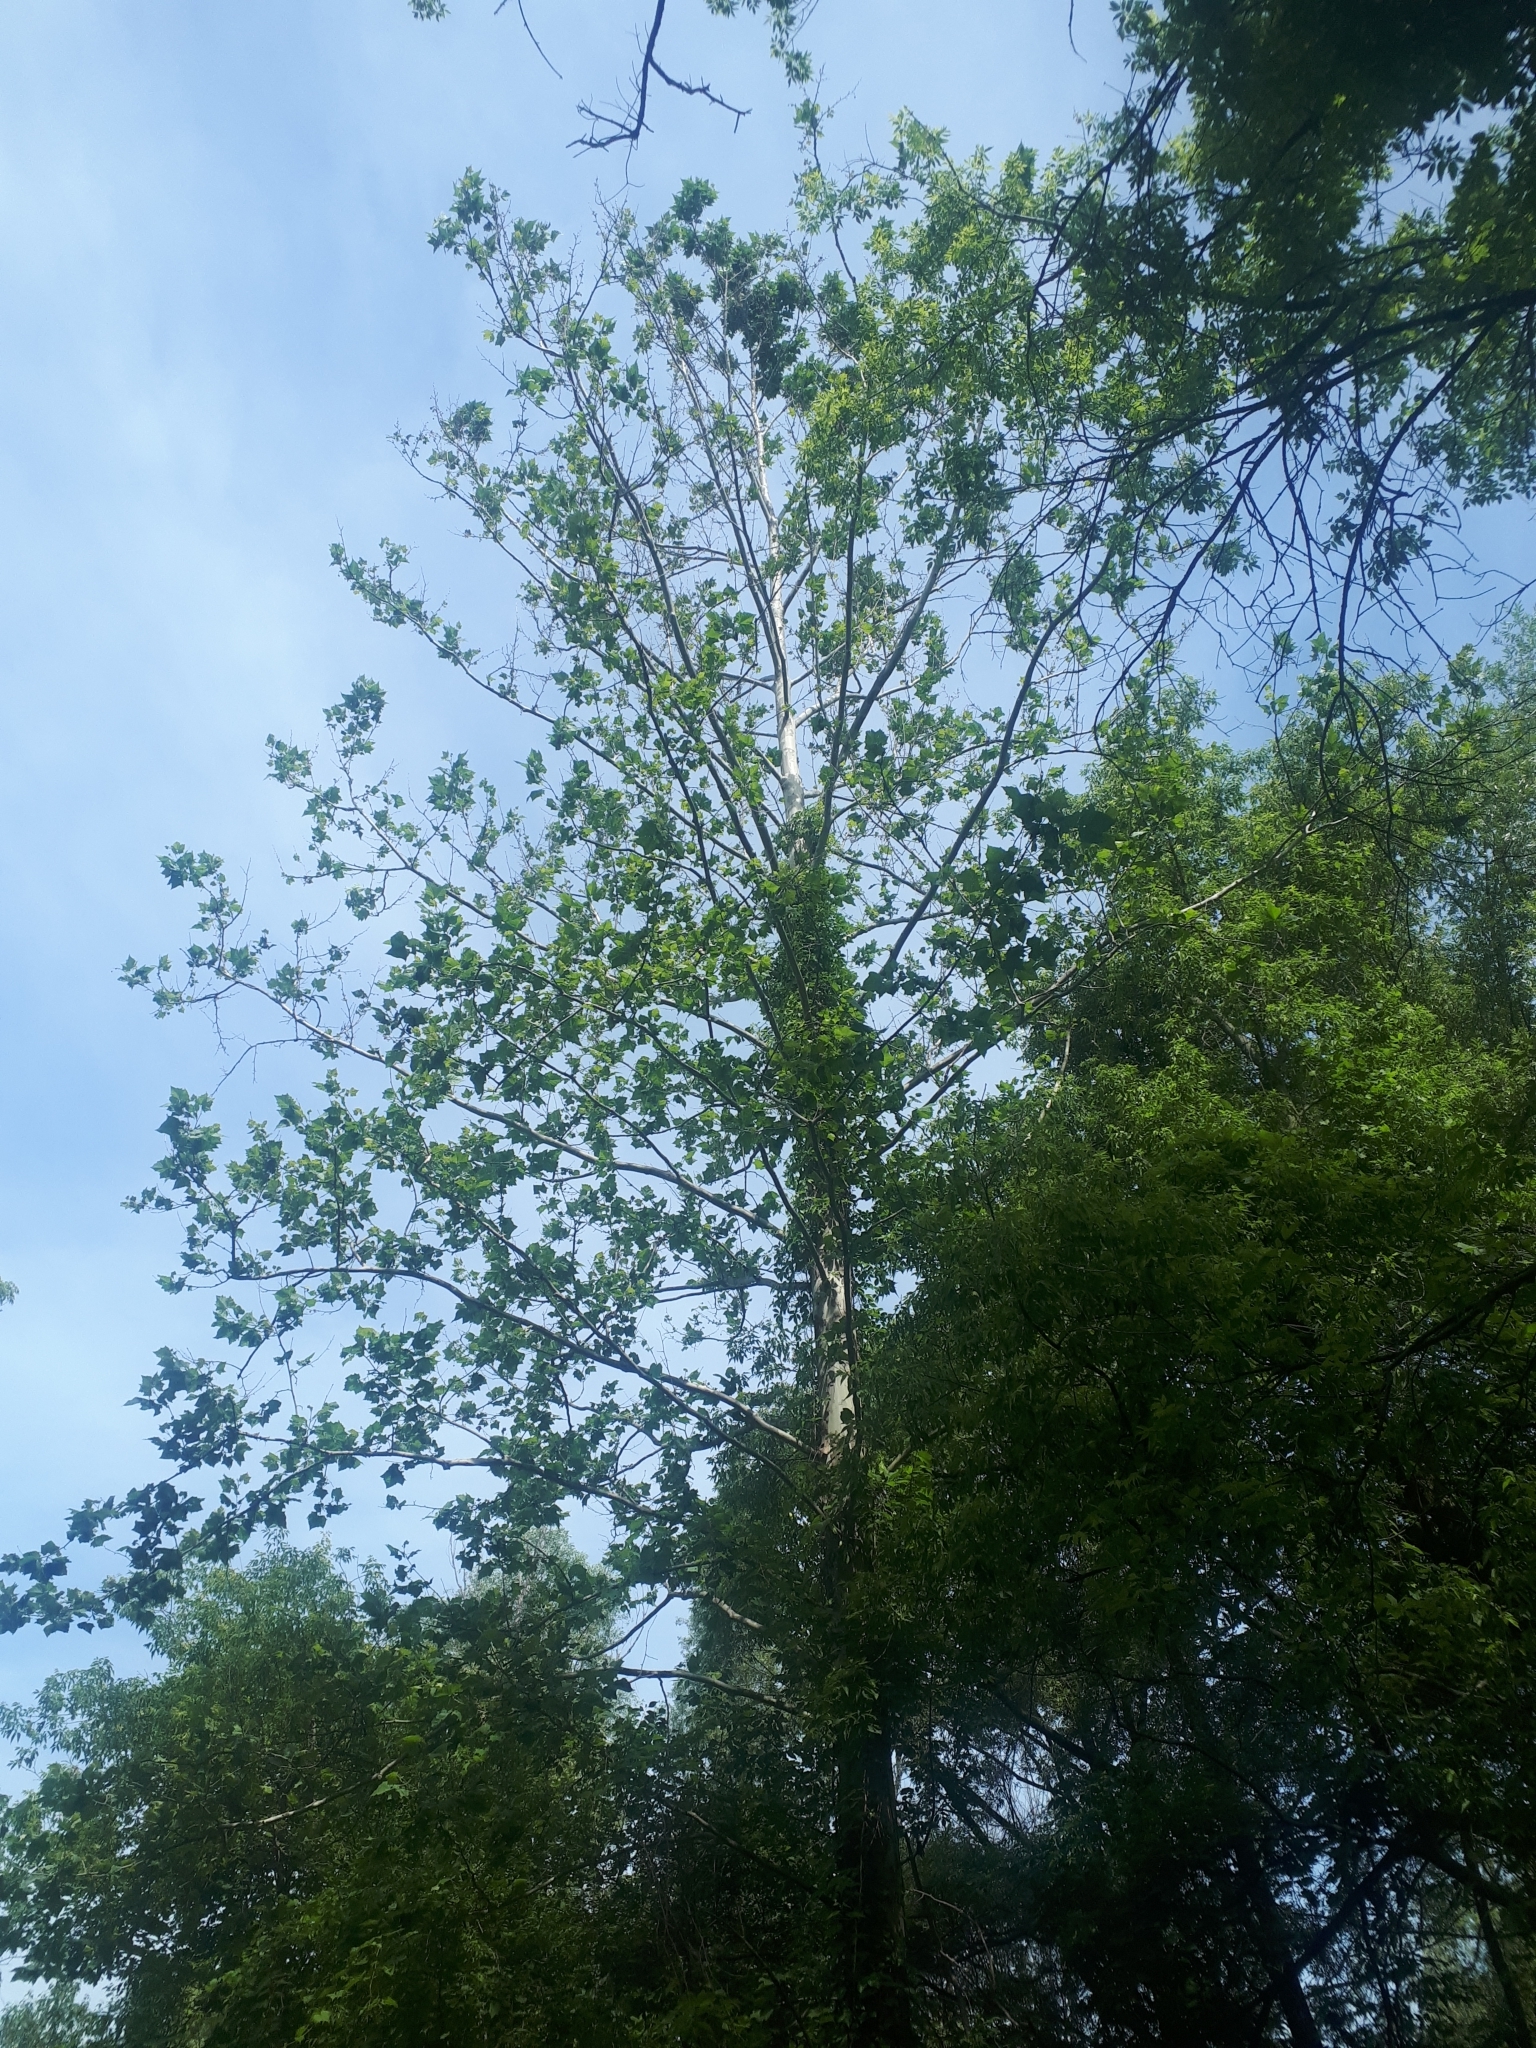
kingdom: Plantae
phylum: Tracheophyta
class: Magnoliopsida
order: Proteales
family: Platanaceae
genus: Platanus
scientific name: Platanus occidentalis
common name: American sycamore
